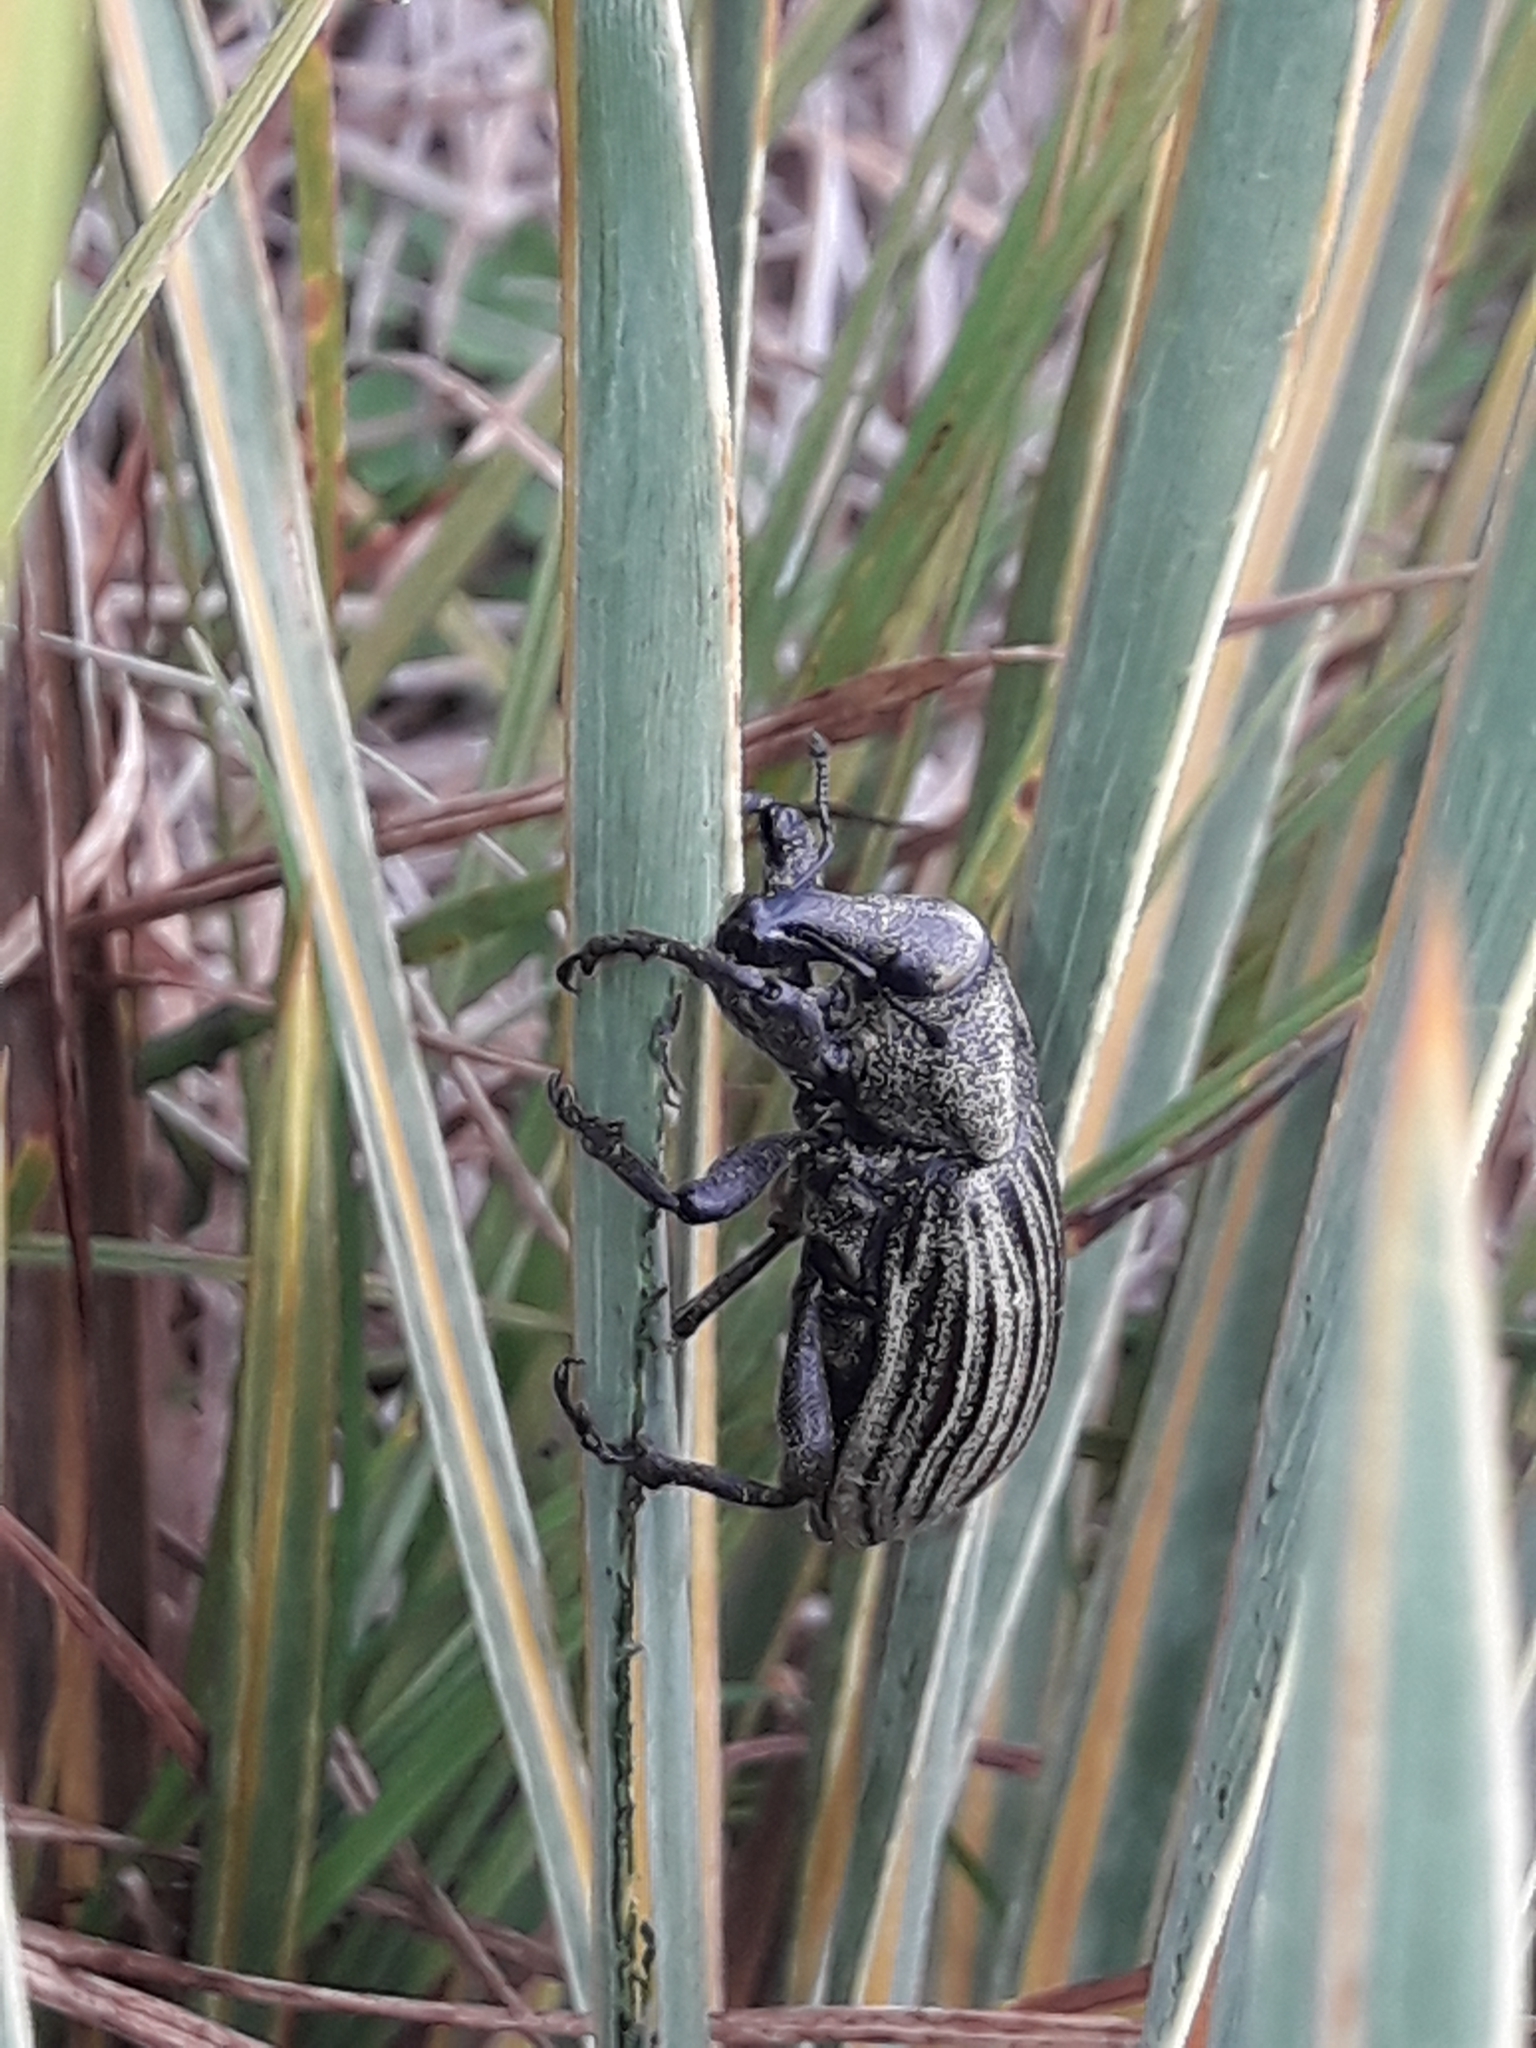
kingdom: Animalia
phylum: Arthropoda
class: Insecta
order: Coleoptera
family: Curculionidae
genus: Lyperobius
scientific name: Lyperobius clarkei
